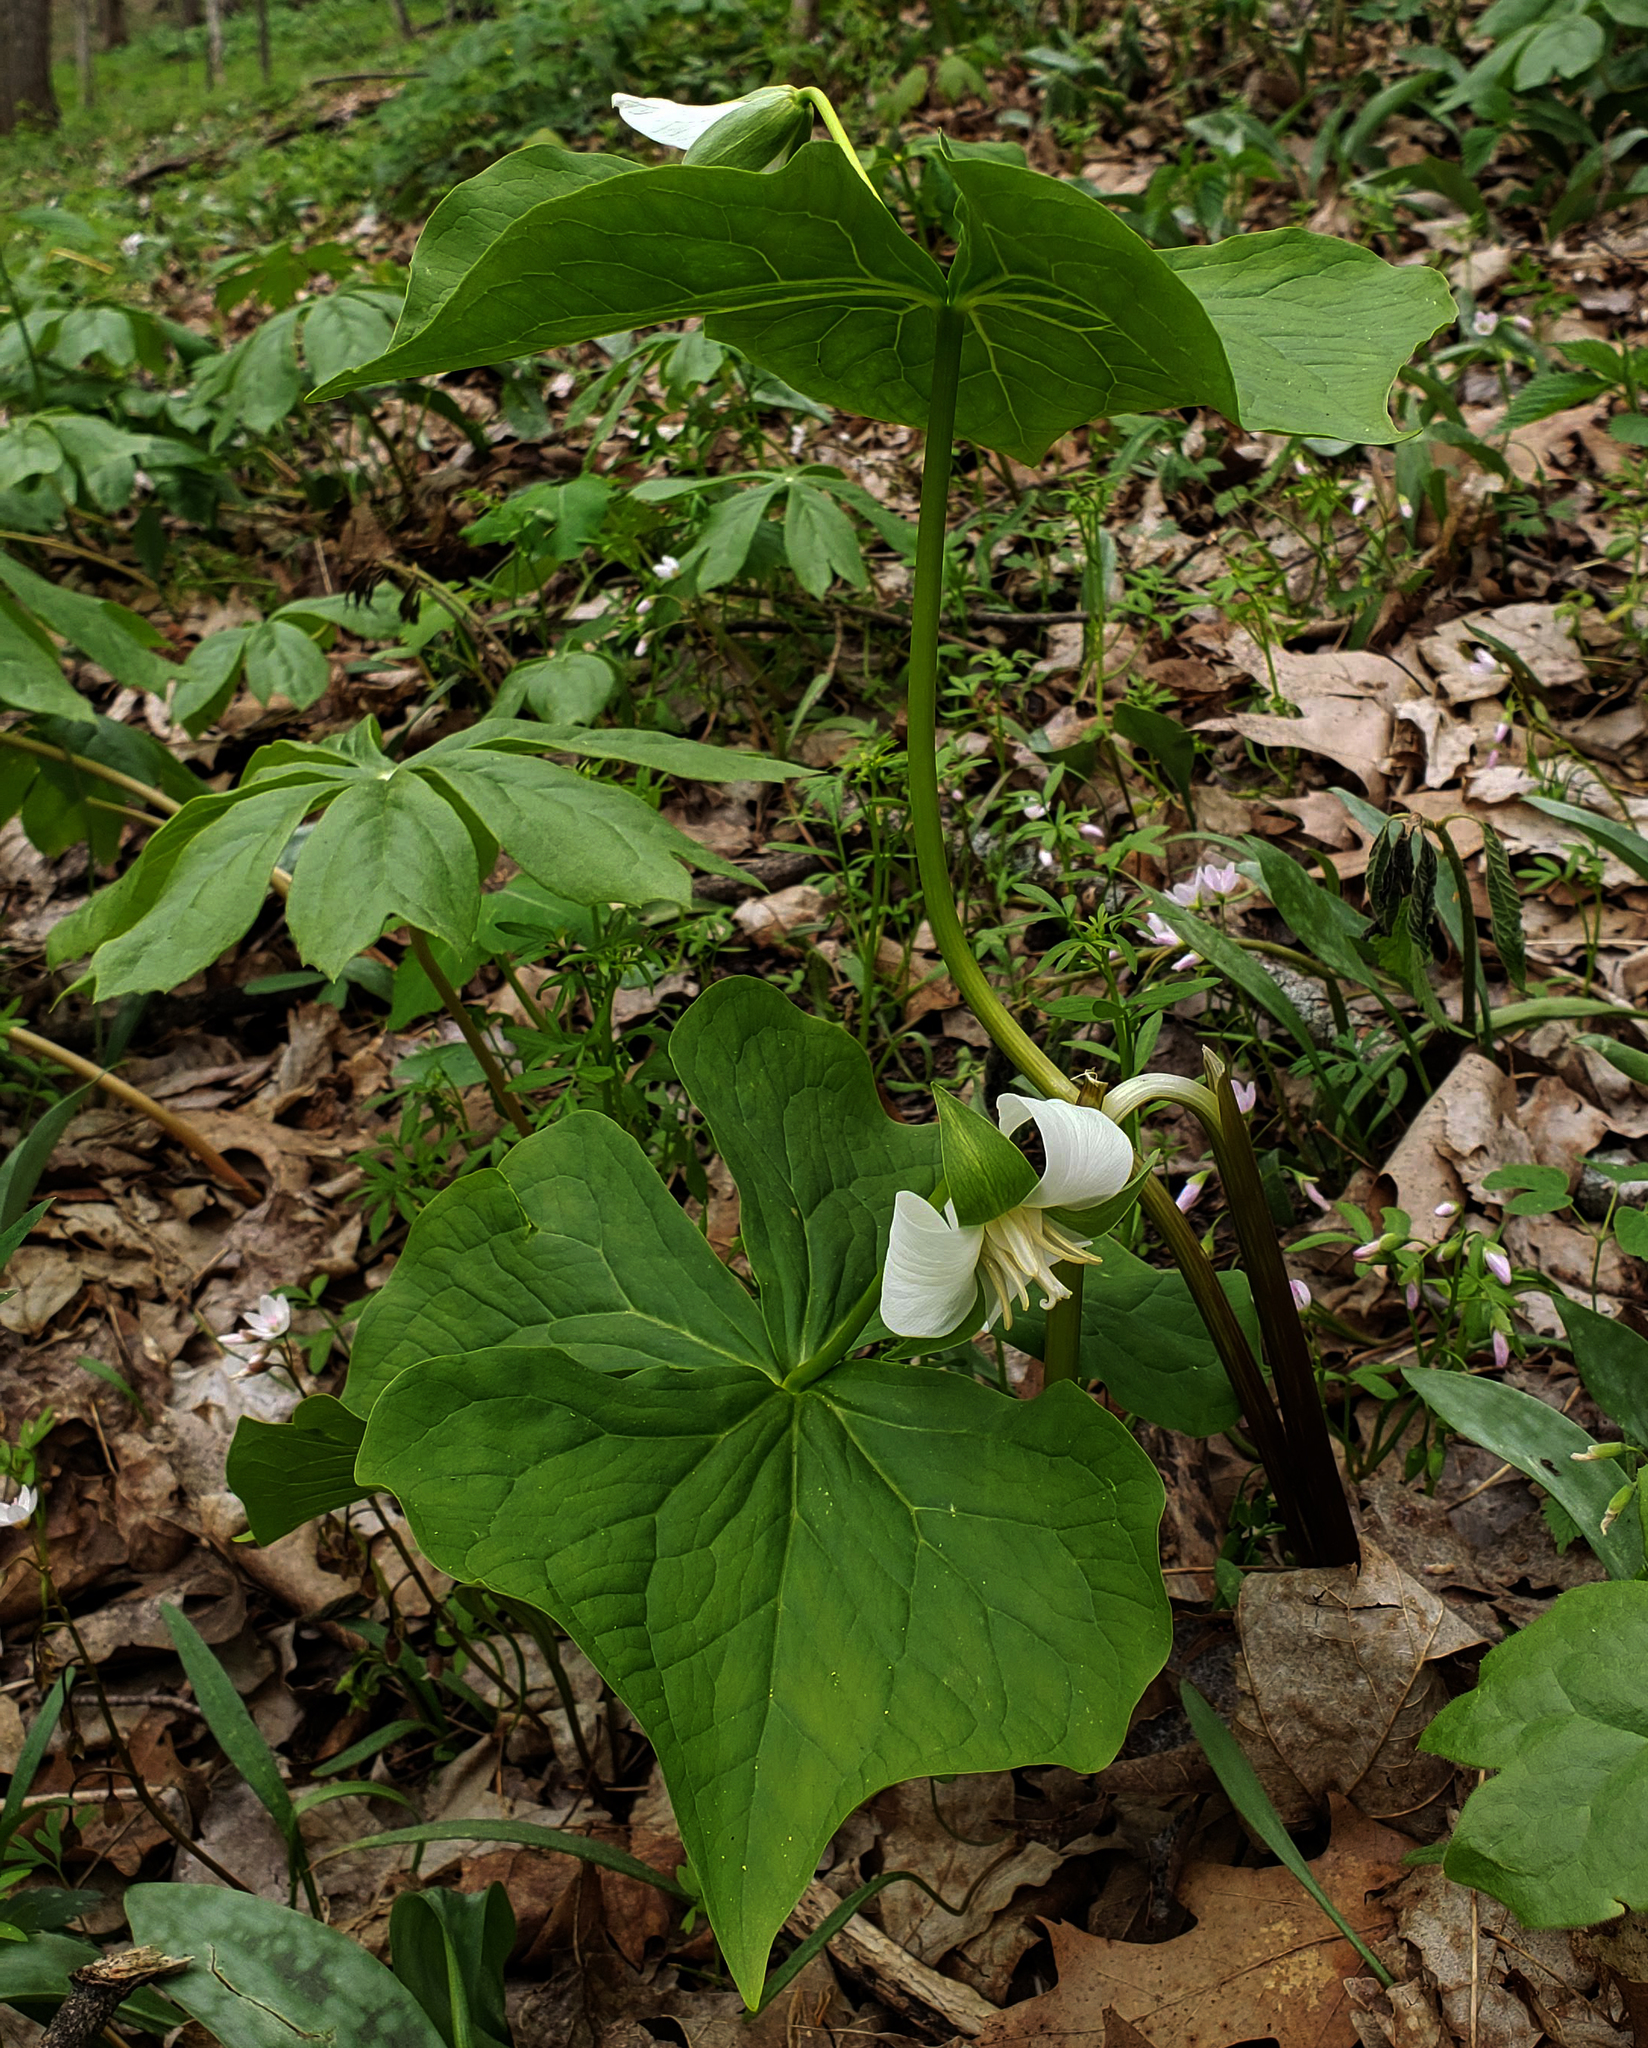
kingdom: Plantae
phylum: Tracheophyta
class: Liliopsida
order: Liliales
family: Melanthiaceae
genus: Trillium
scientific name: Trillium flexipes
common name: Drooping trillium
